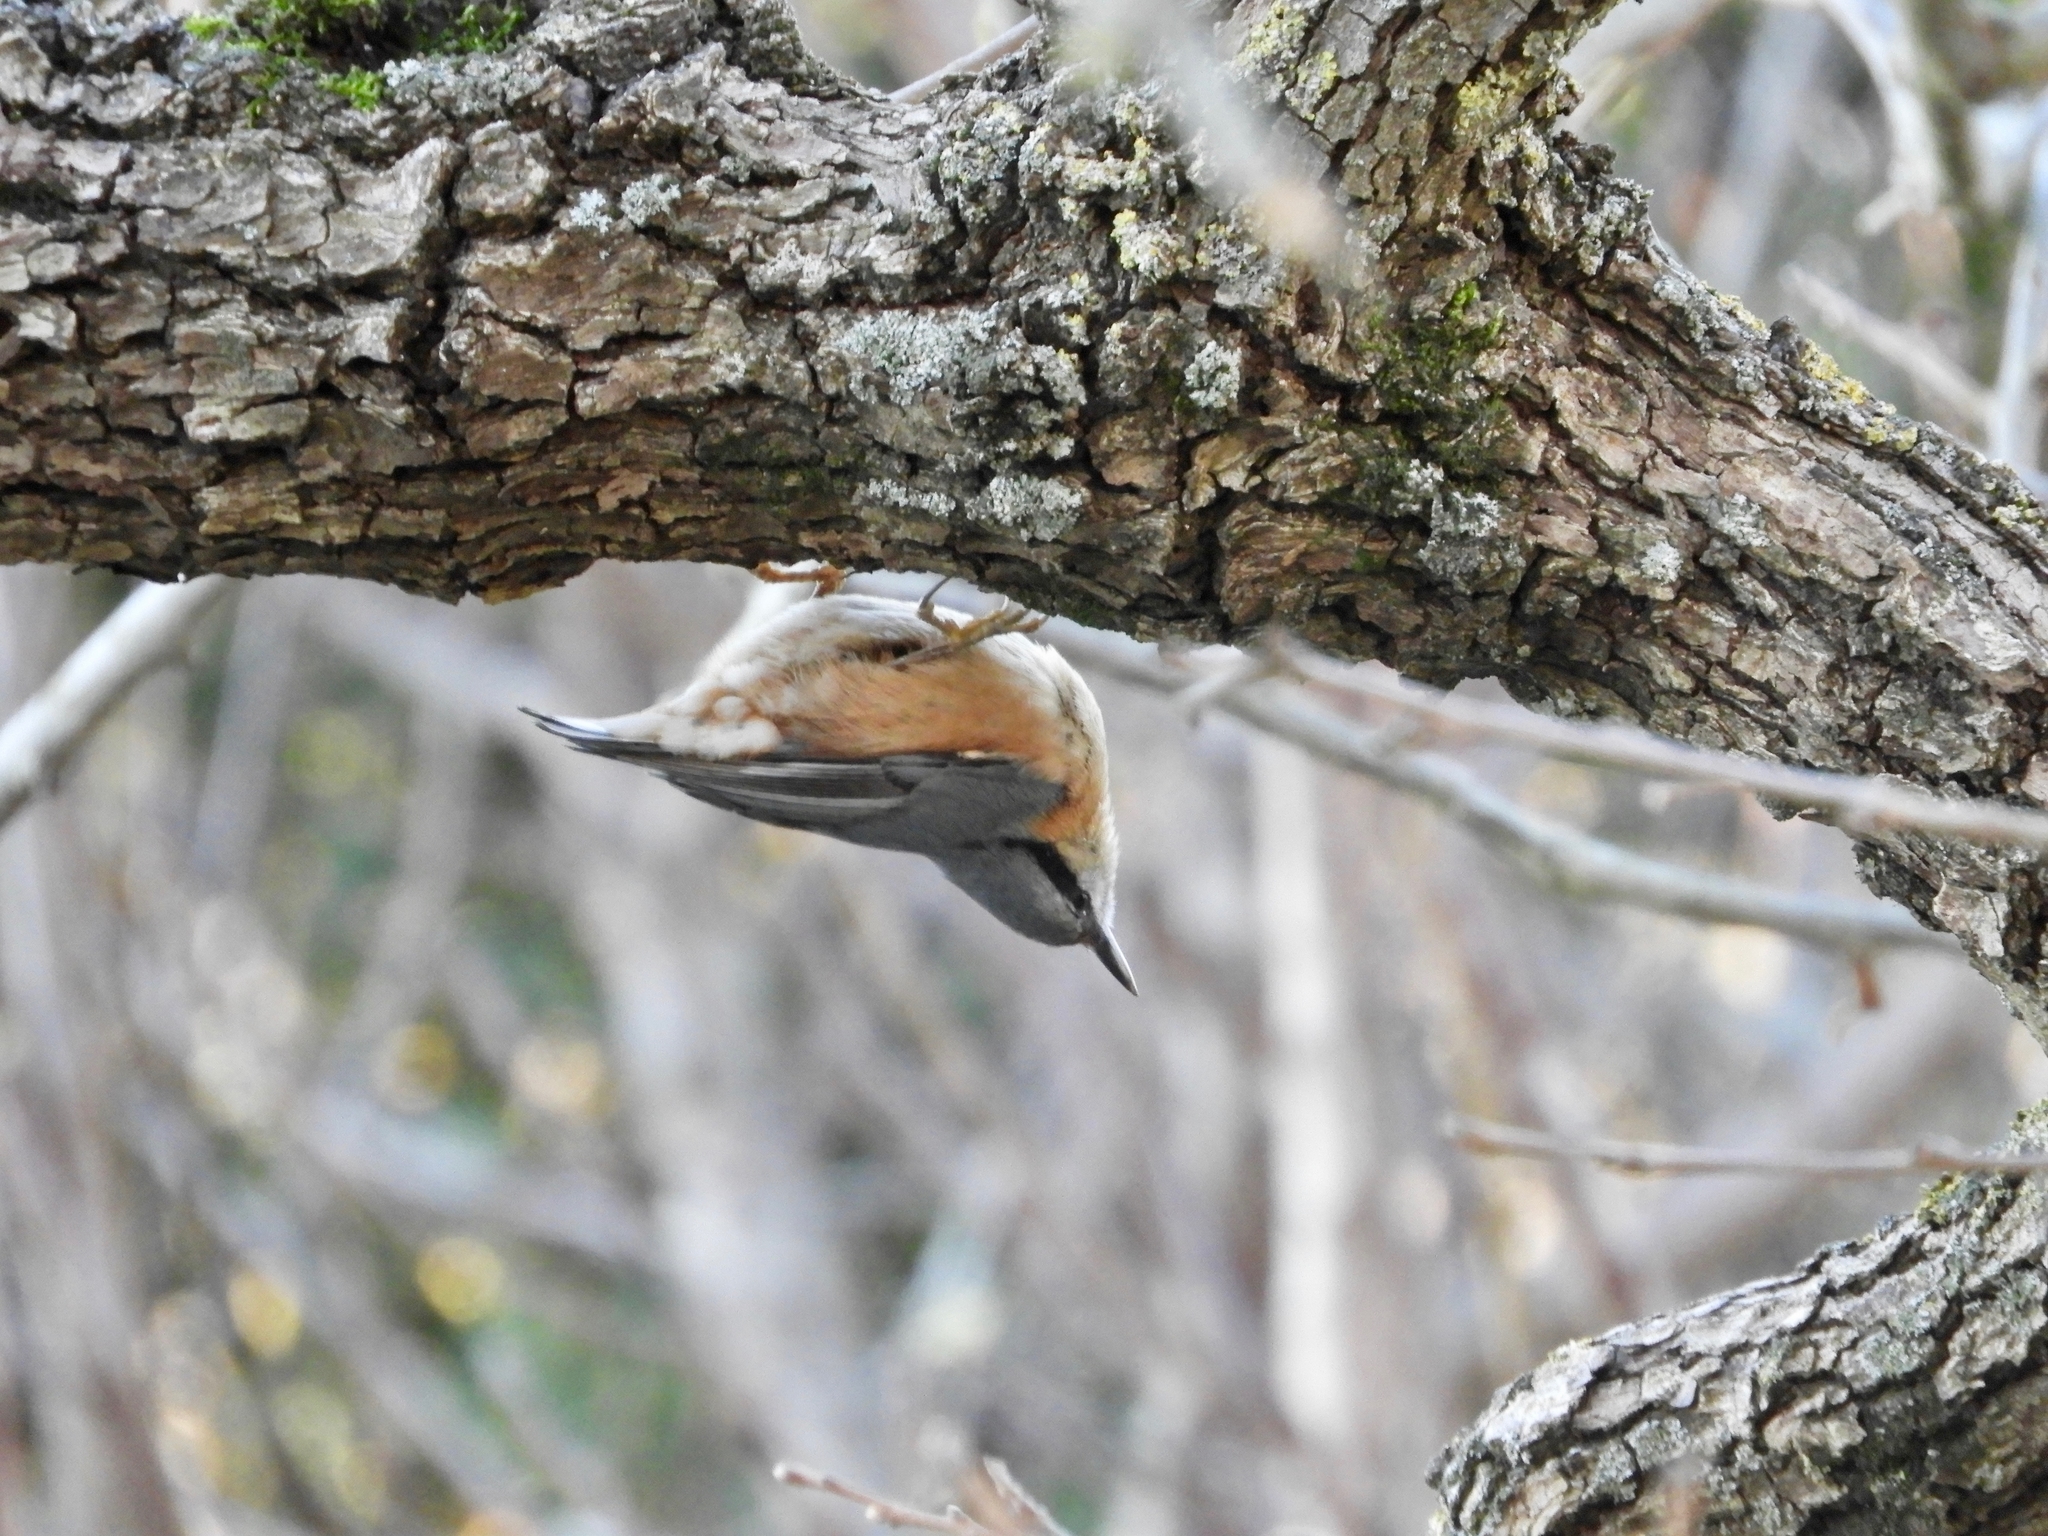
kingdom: Animalia
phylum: Chordata
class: Aves
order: Passeriformes
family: Sittidae
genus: Sitta
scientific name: Sitta europaea
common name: Eurasian nuthatch
